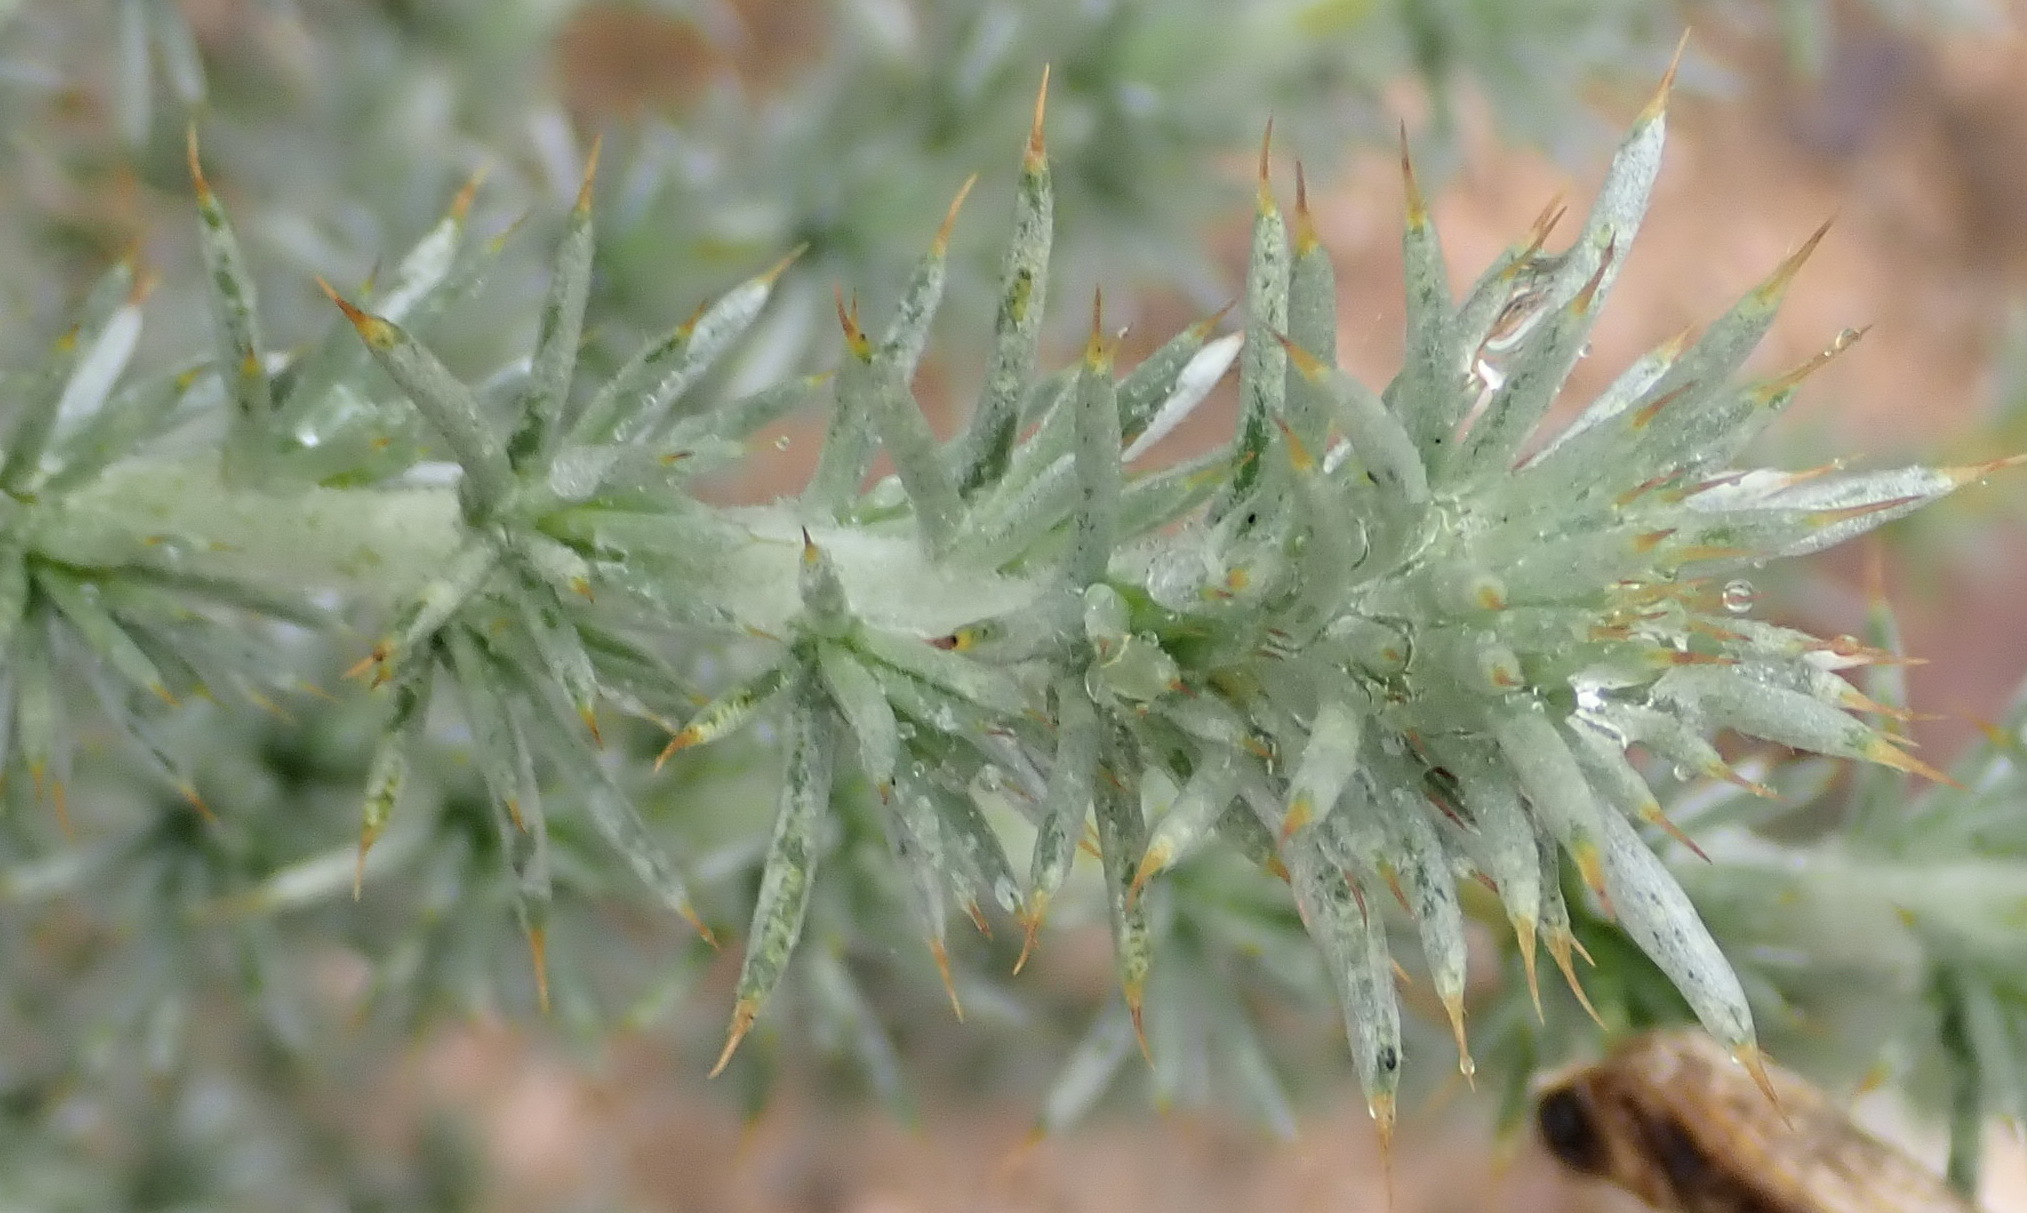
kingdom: Plantae
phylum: Tracheophyta
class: Magnoliopsida
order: Fabales
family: Fabaceae
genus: Aspalathus
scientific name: Aspalathus hystrix
